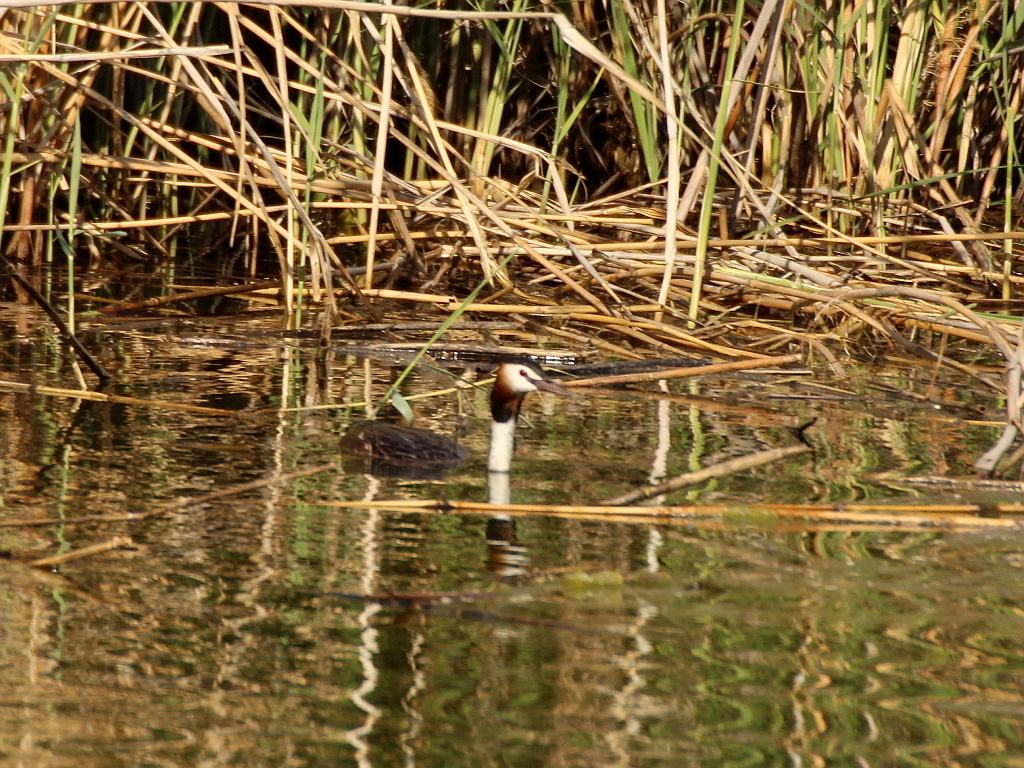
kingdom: Animalia
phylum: Chordata
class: Aves
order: Podicipediformes
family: Podicipedidae
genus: Podiceps
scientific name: Podiceps cristatus
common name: Great crested grebe
